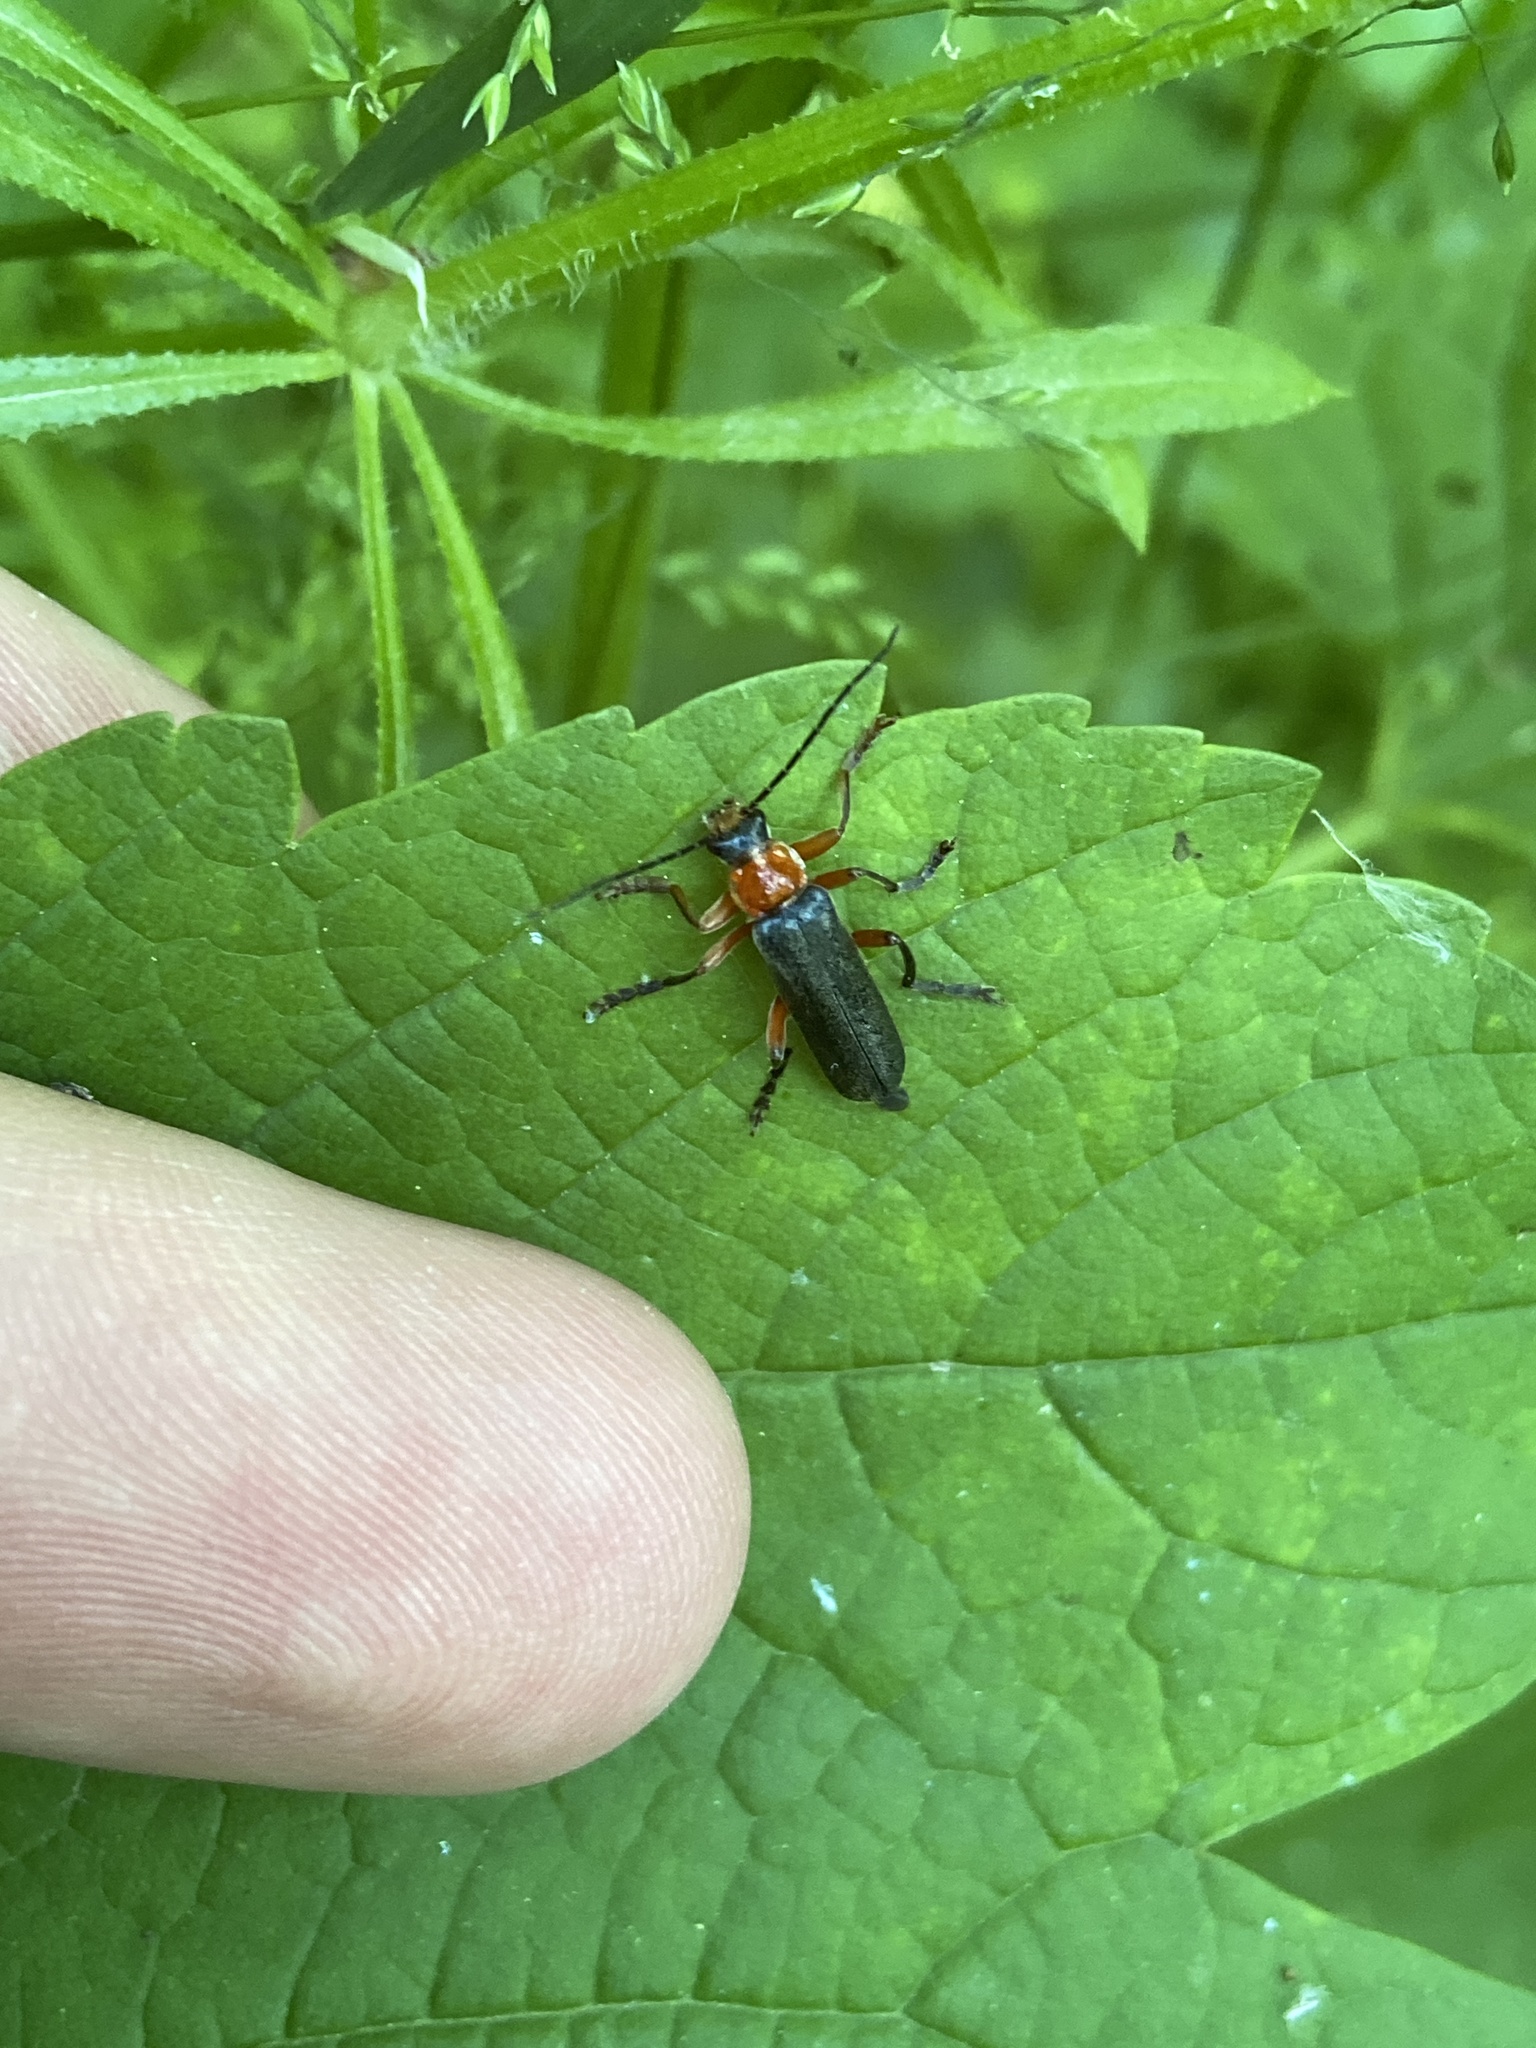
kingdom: Animalia
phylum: Arthropoda
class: Insecta
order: Coleoptera
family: Cantharidae
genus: Cantharis
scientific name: Cantharis pellucida
